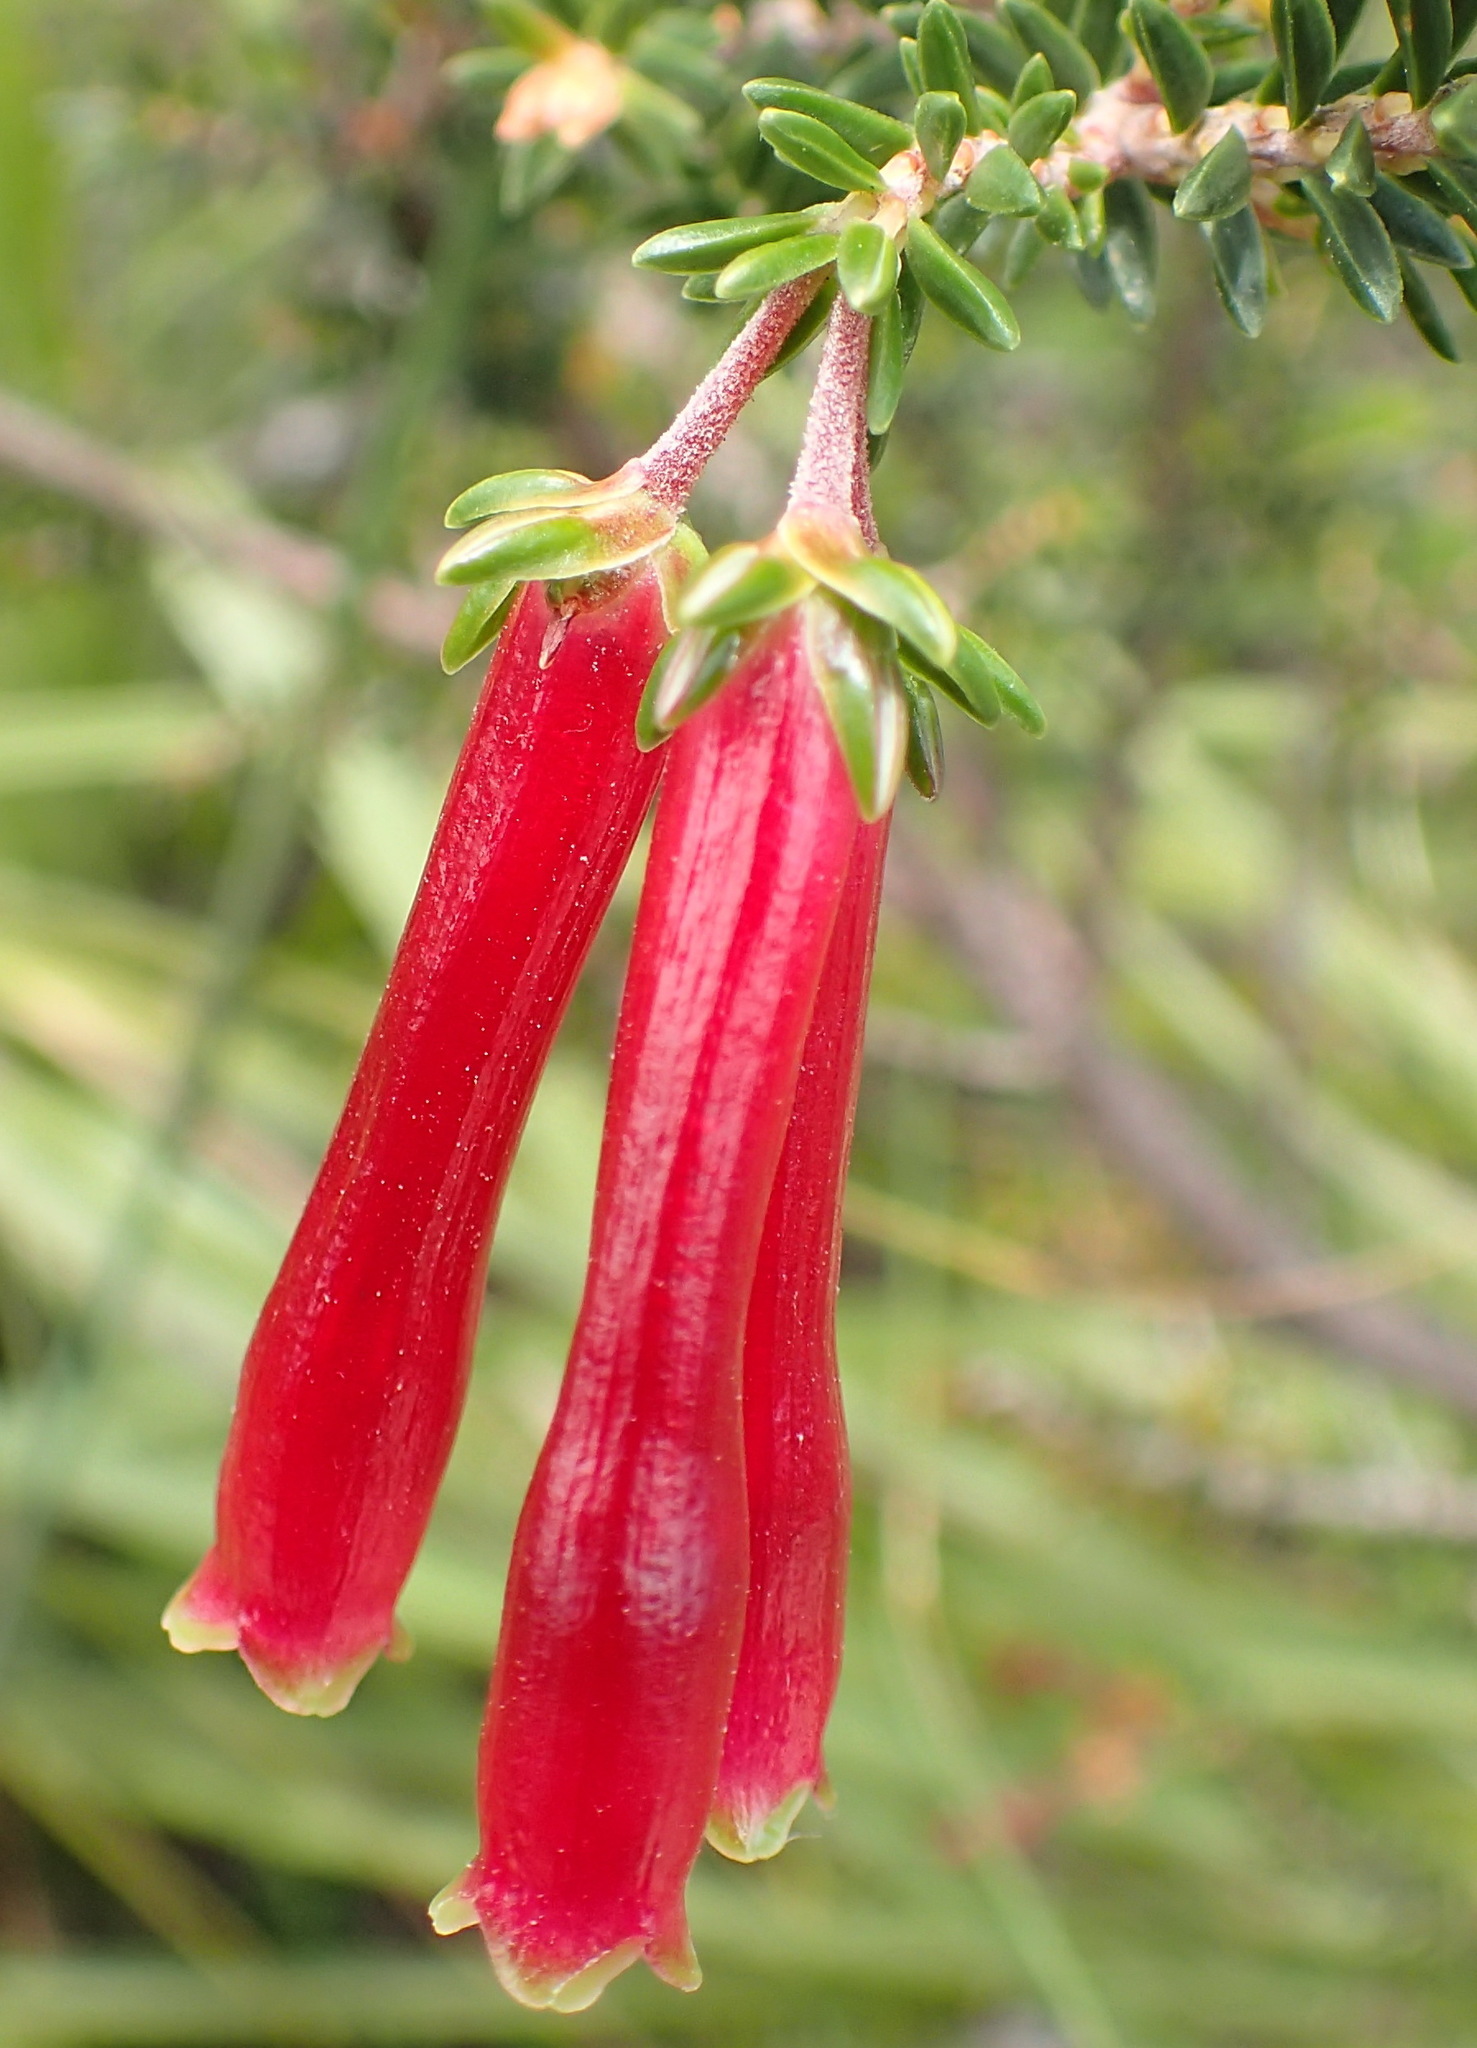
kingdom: Plantae
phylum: Tracheophyta
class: Magnoliopsida
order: Ericales
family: Ericaceae
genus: Erica
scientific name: Erica discolor
